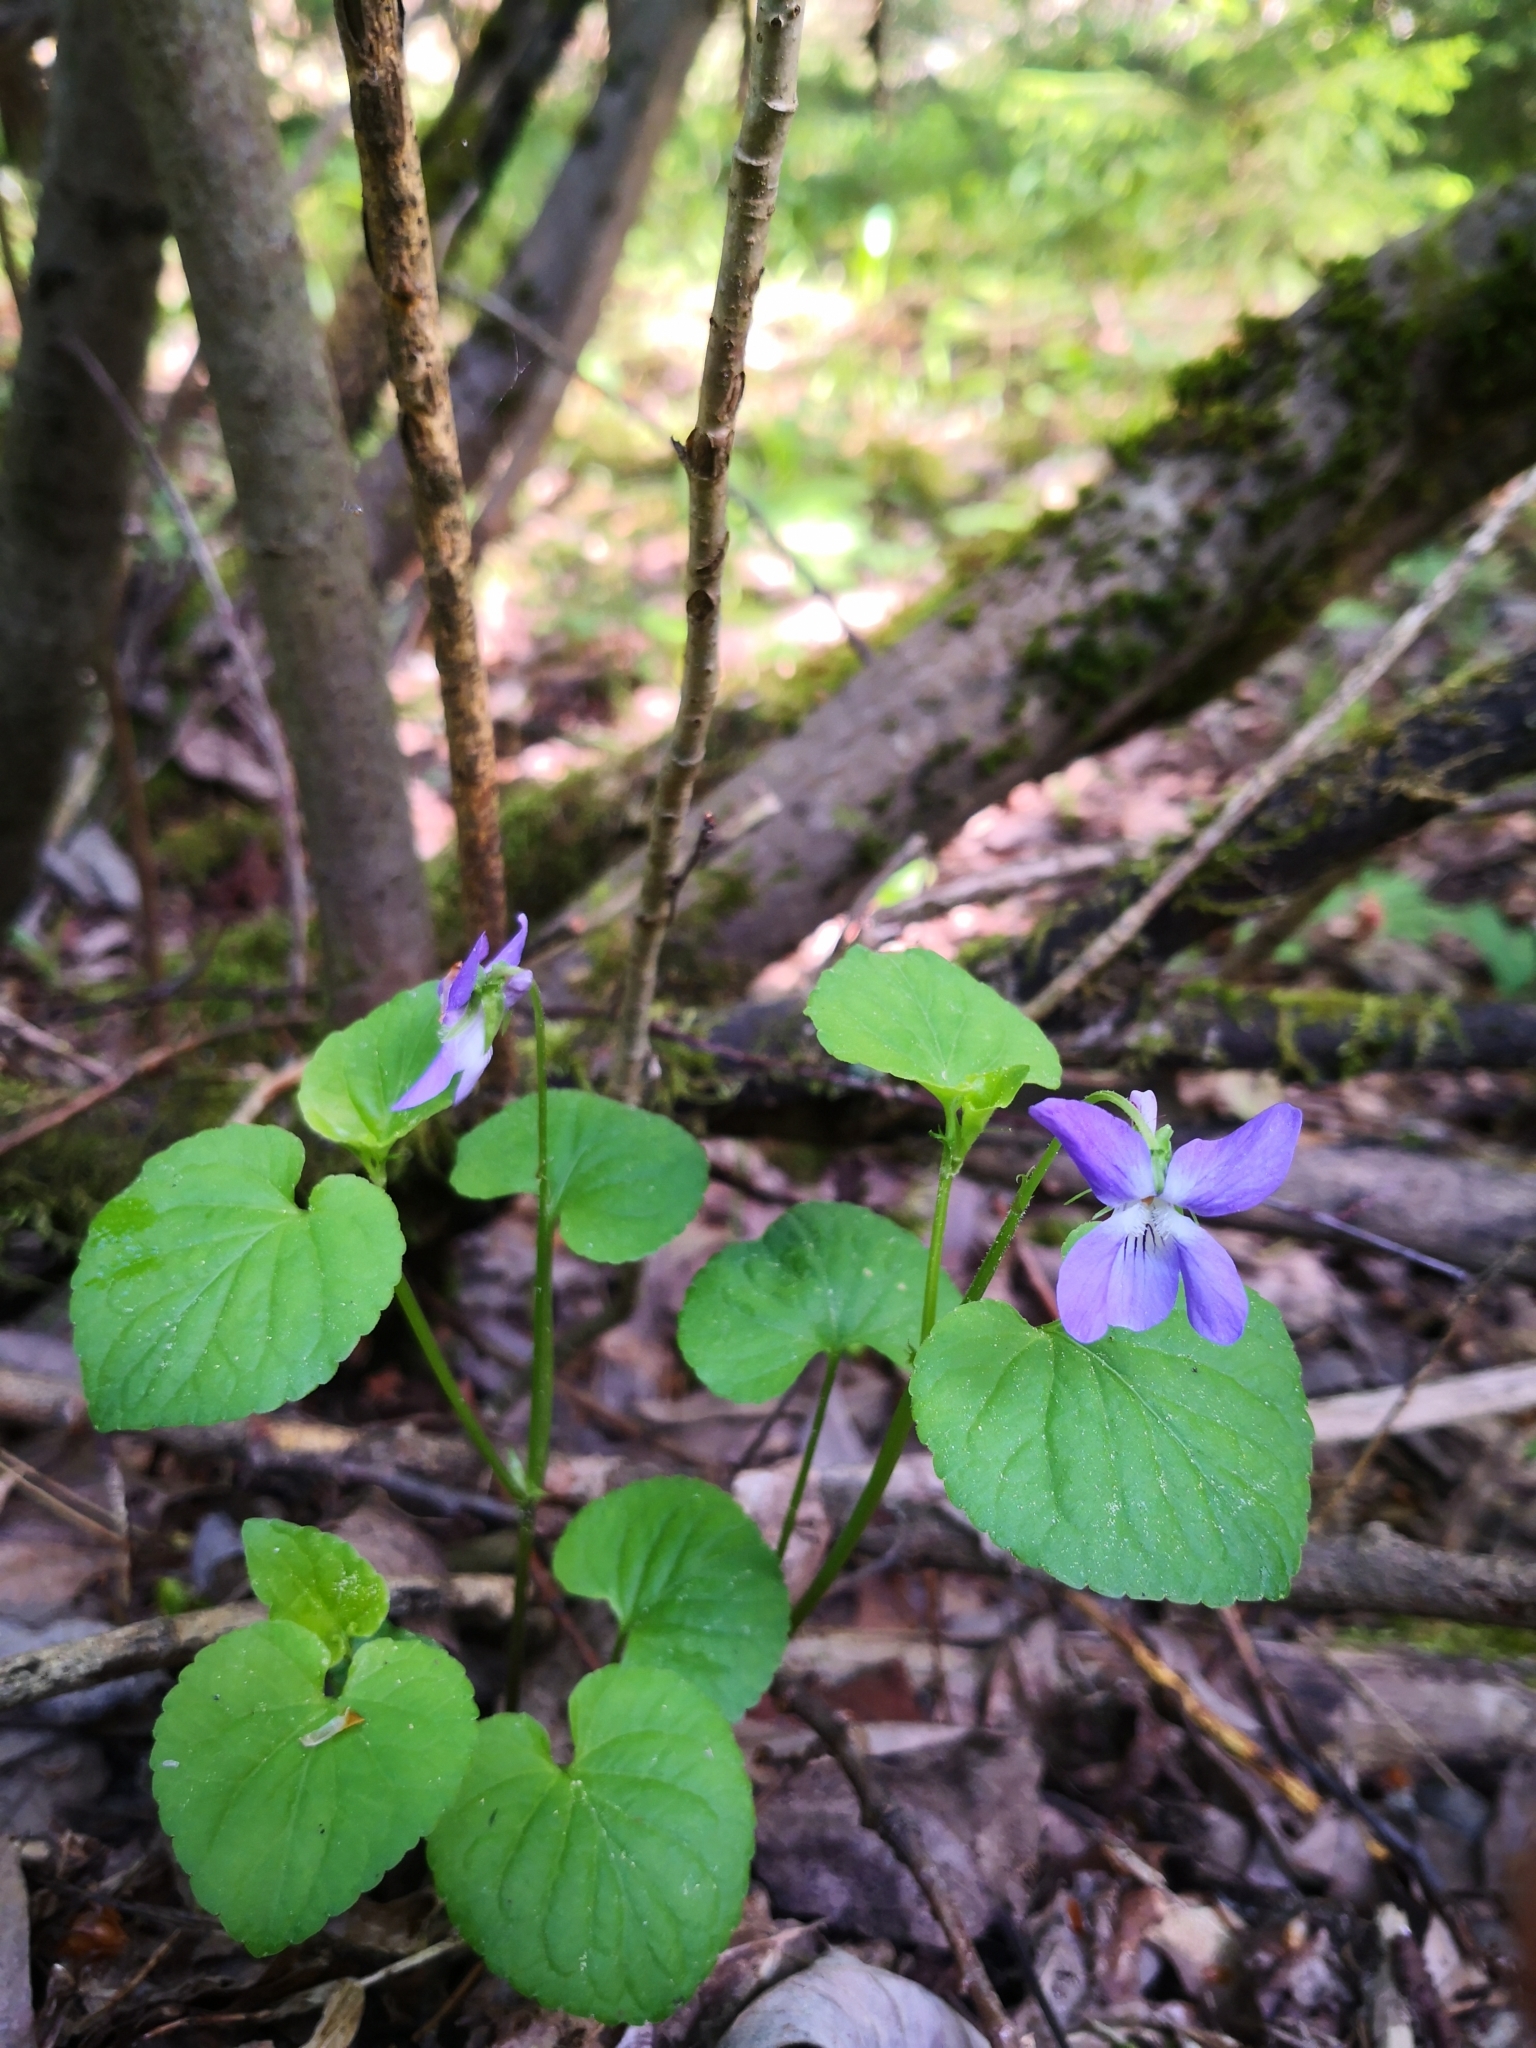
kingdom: Plantae
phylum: Tracheophyta
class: Magnoliopsida
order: Malpighiales
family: Violaceae
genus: Viola
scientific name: Viola riviniana
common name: Common dog-violet
